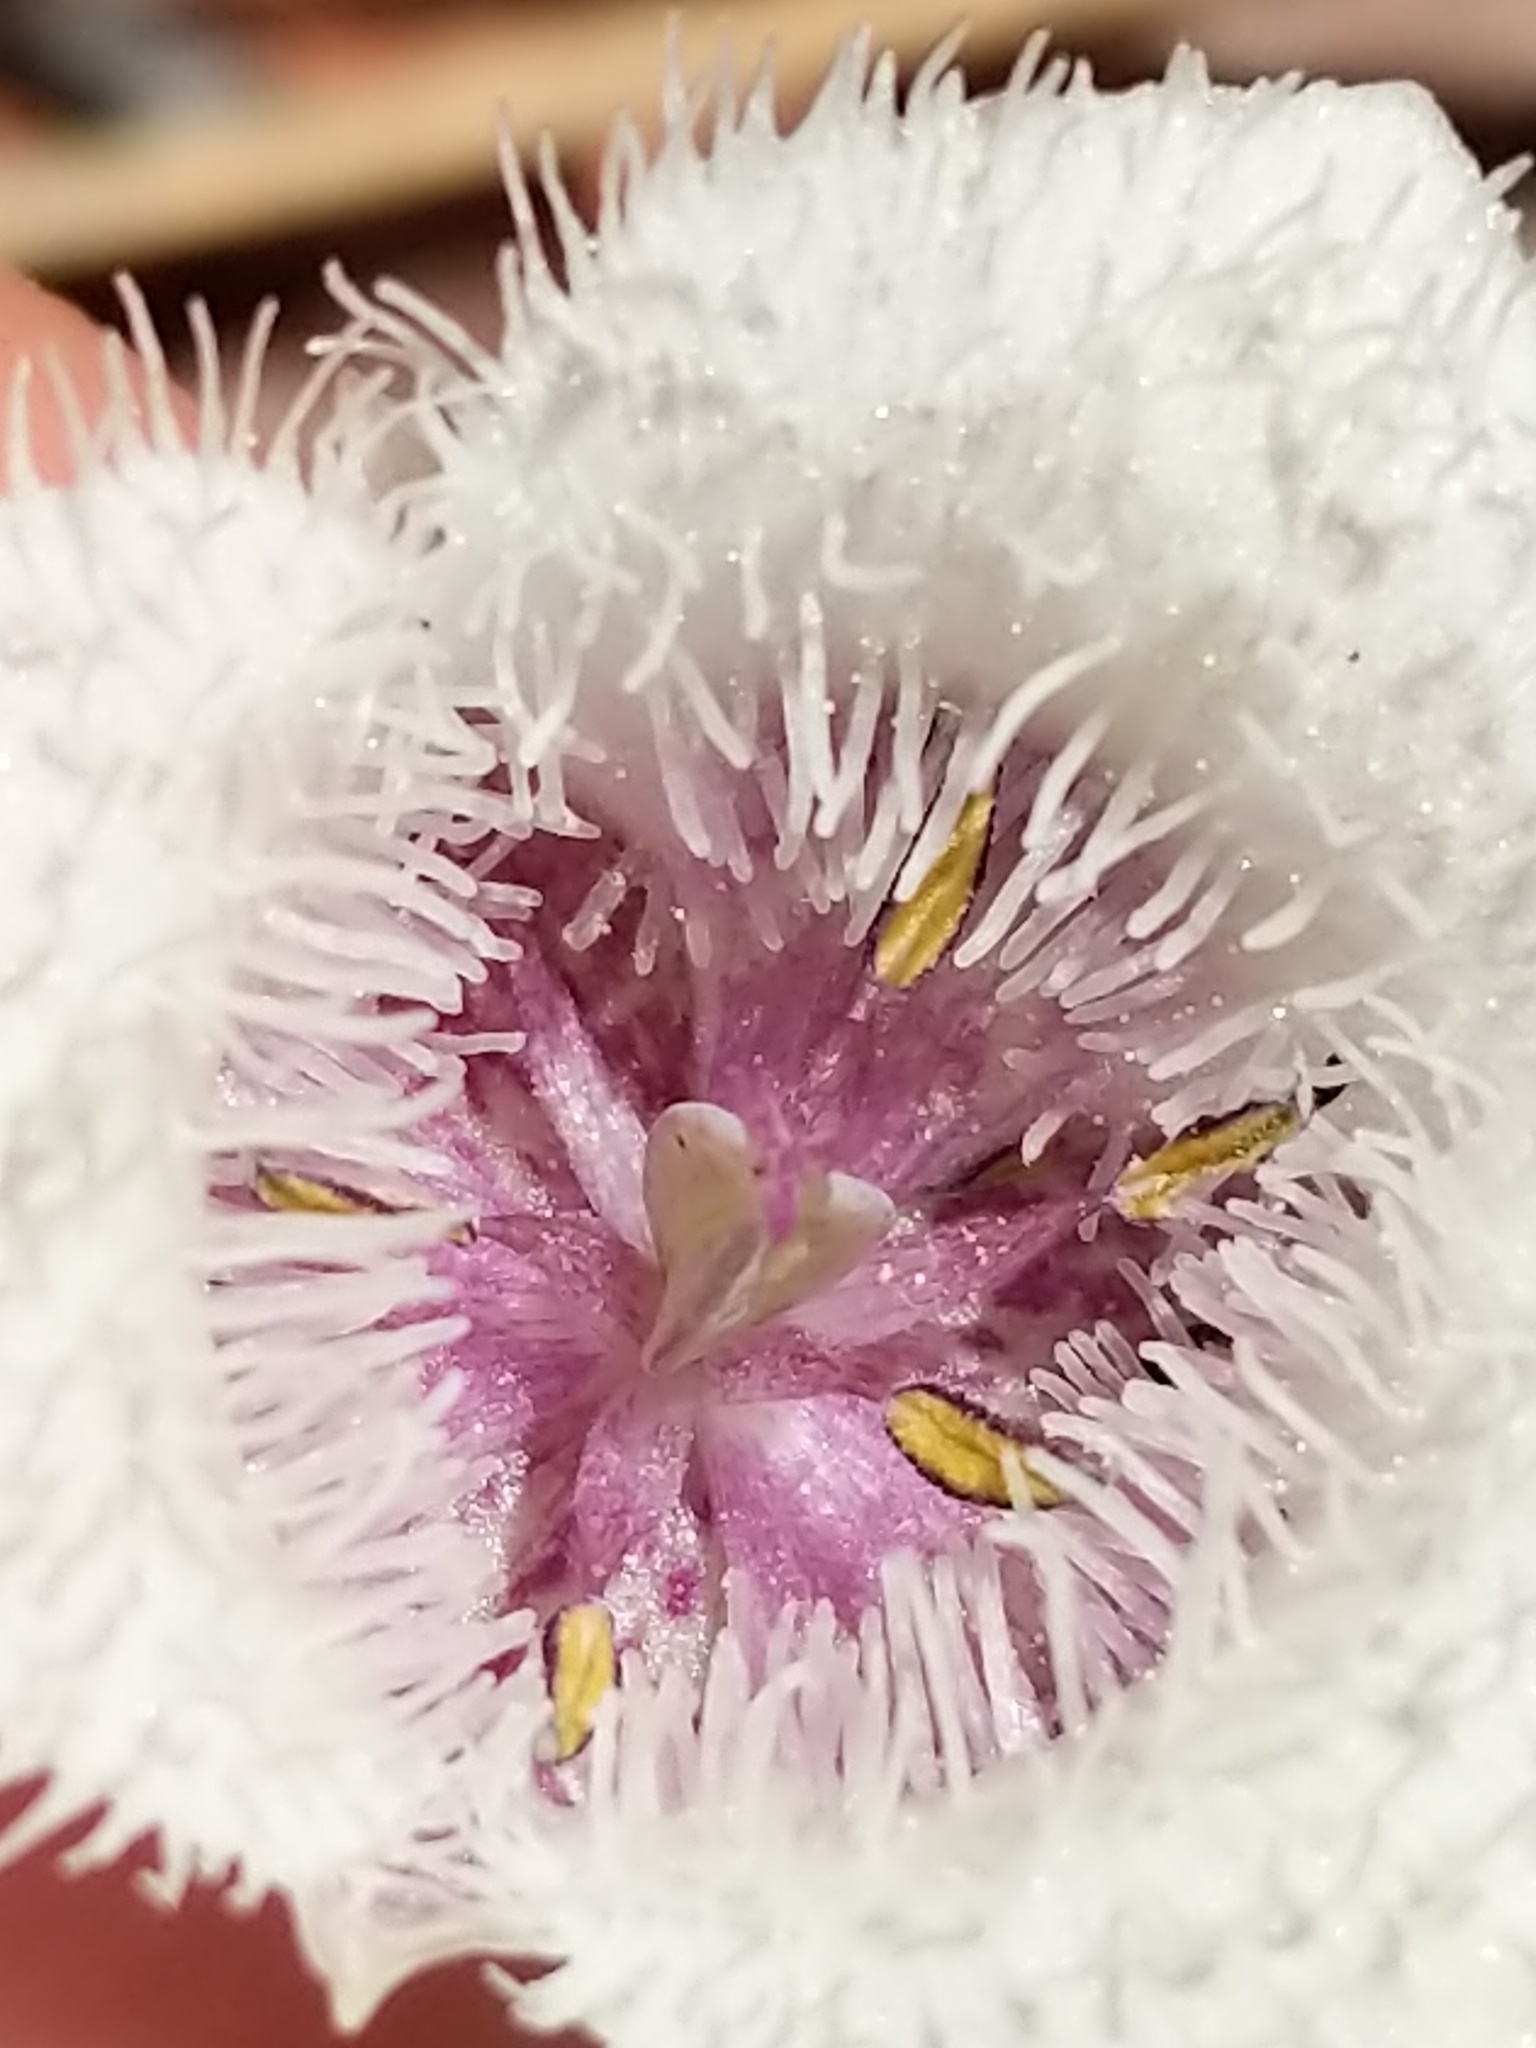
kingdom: Plantae
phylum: Tracheophyta
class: Liliopsida
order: Liliales
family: Liliaceae
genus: Calochortus
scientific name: Calochortus tolmiei
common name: Pussy-ears
